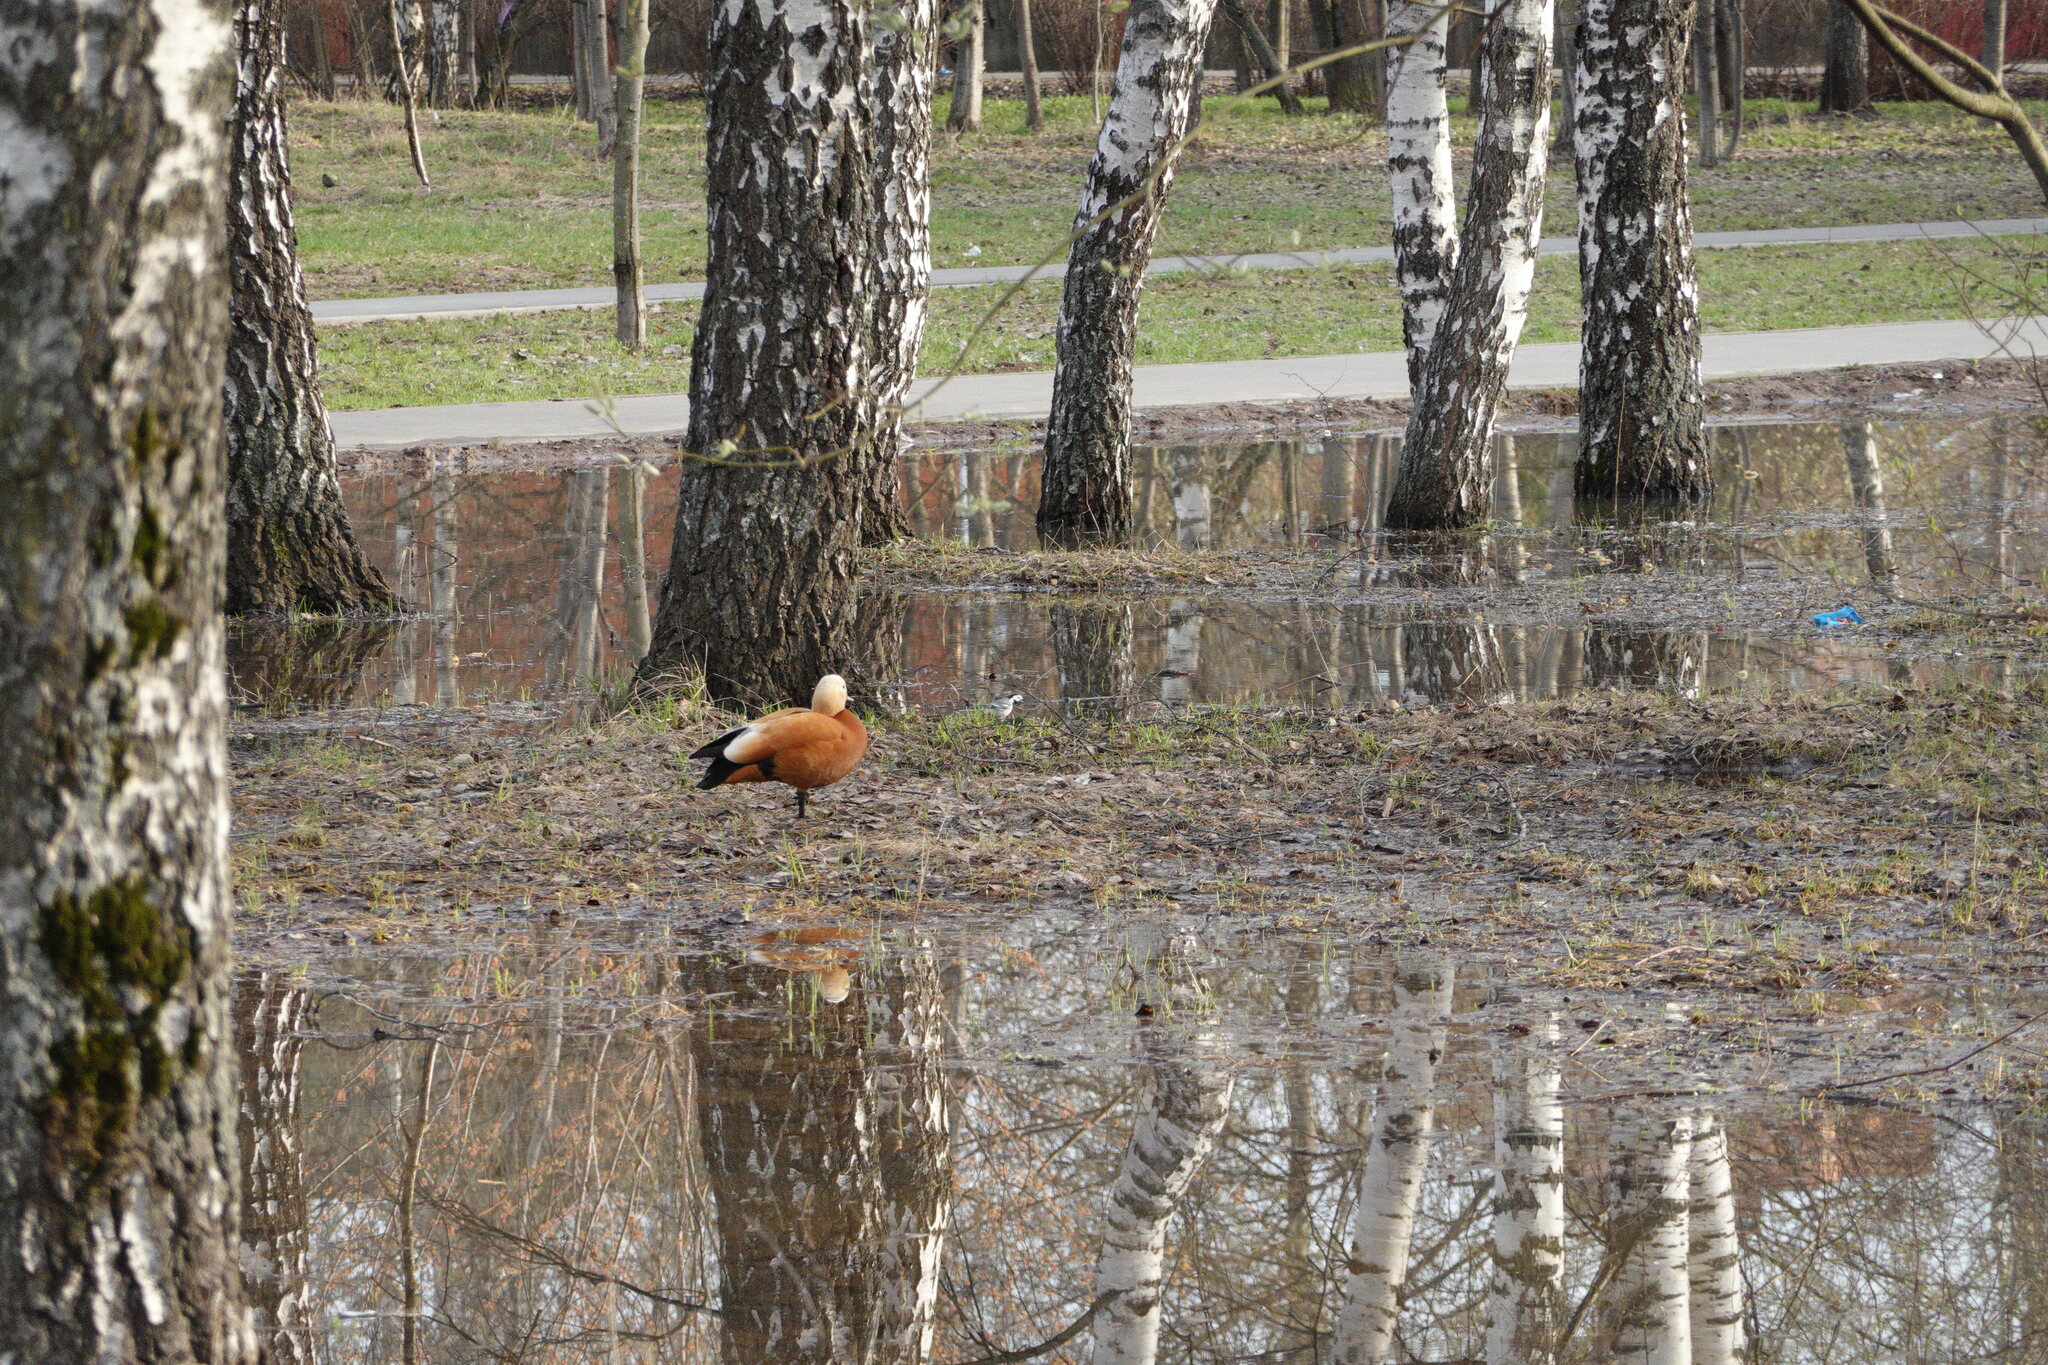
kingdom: Animalia
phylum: Chordata
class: Aves
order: Anseriformes
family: Anatidae
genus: Tadorna
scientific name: Tadorna ferruginea
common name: Ruddy shelduck
